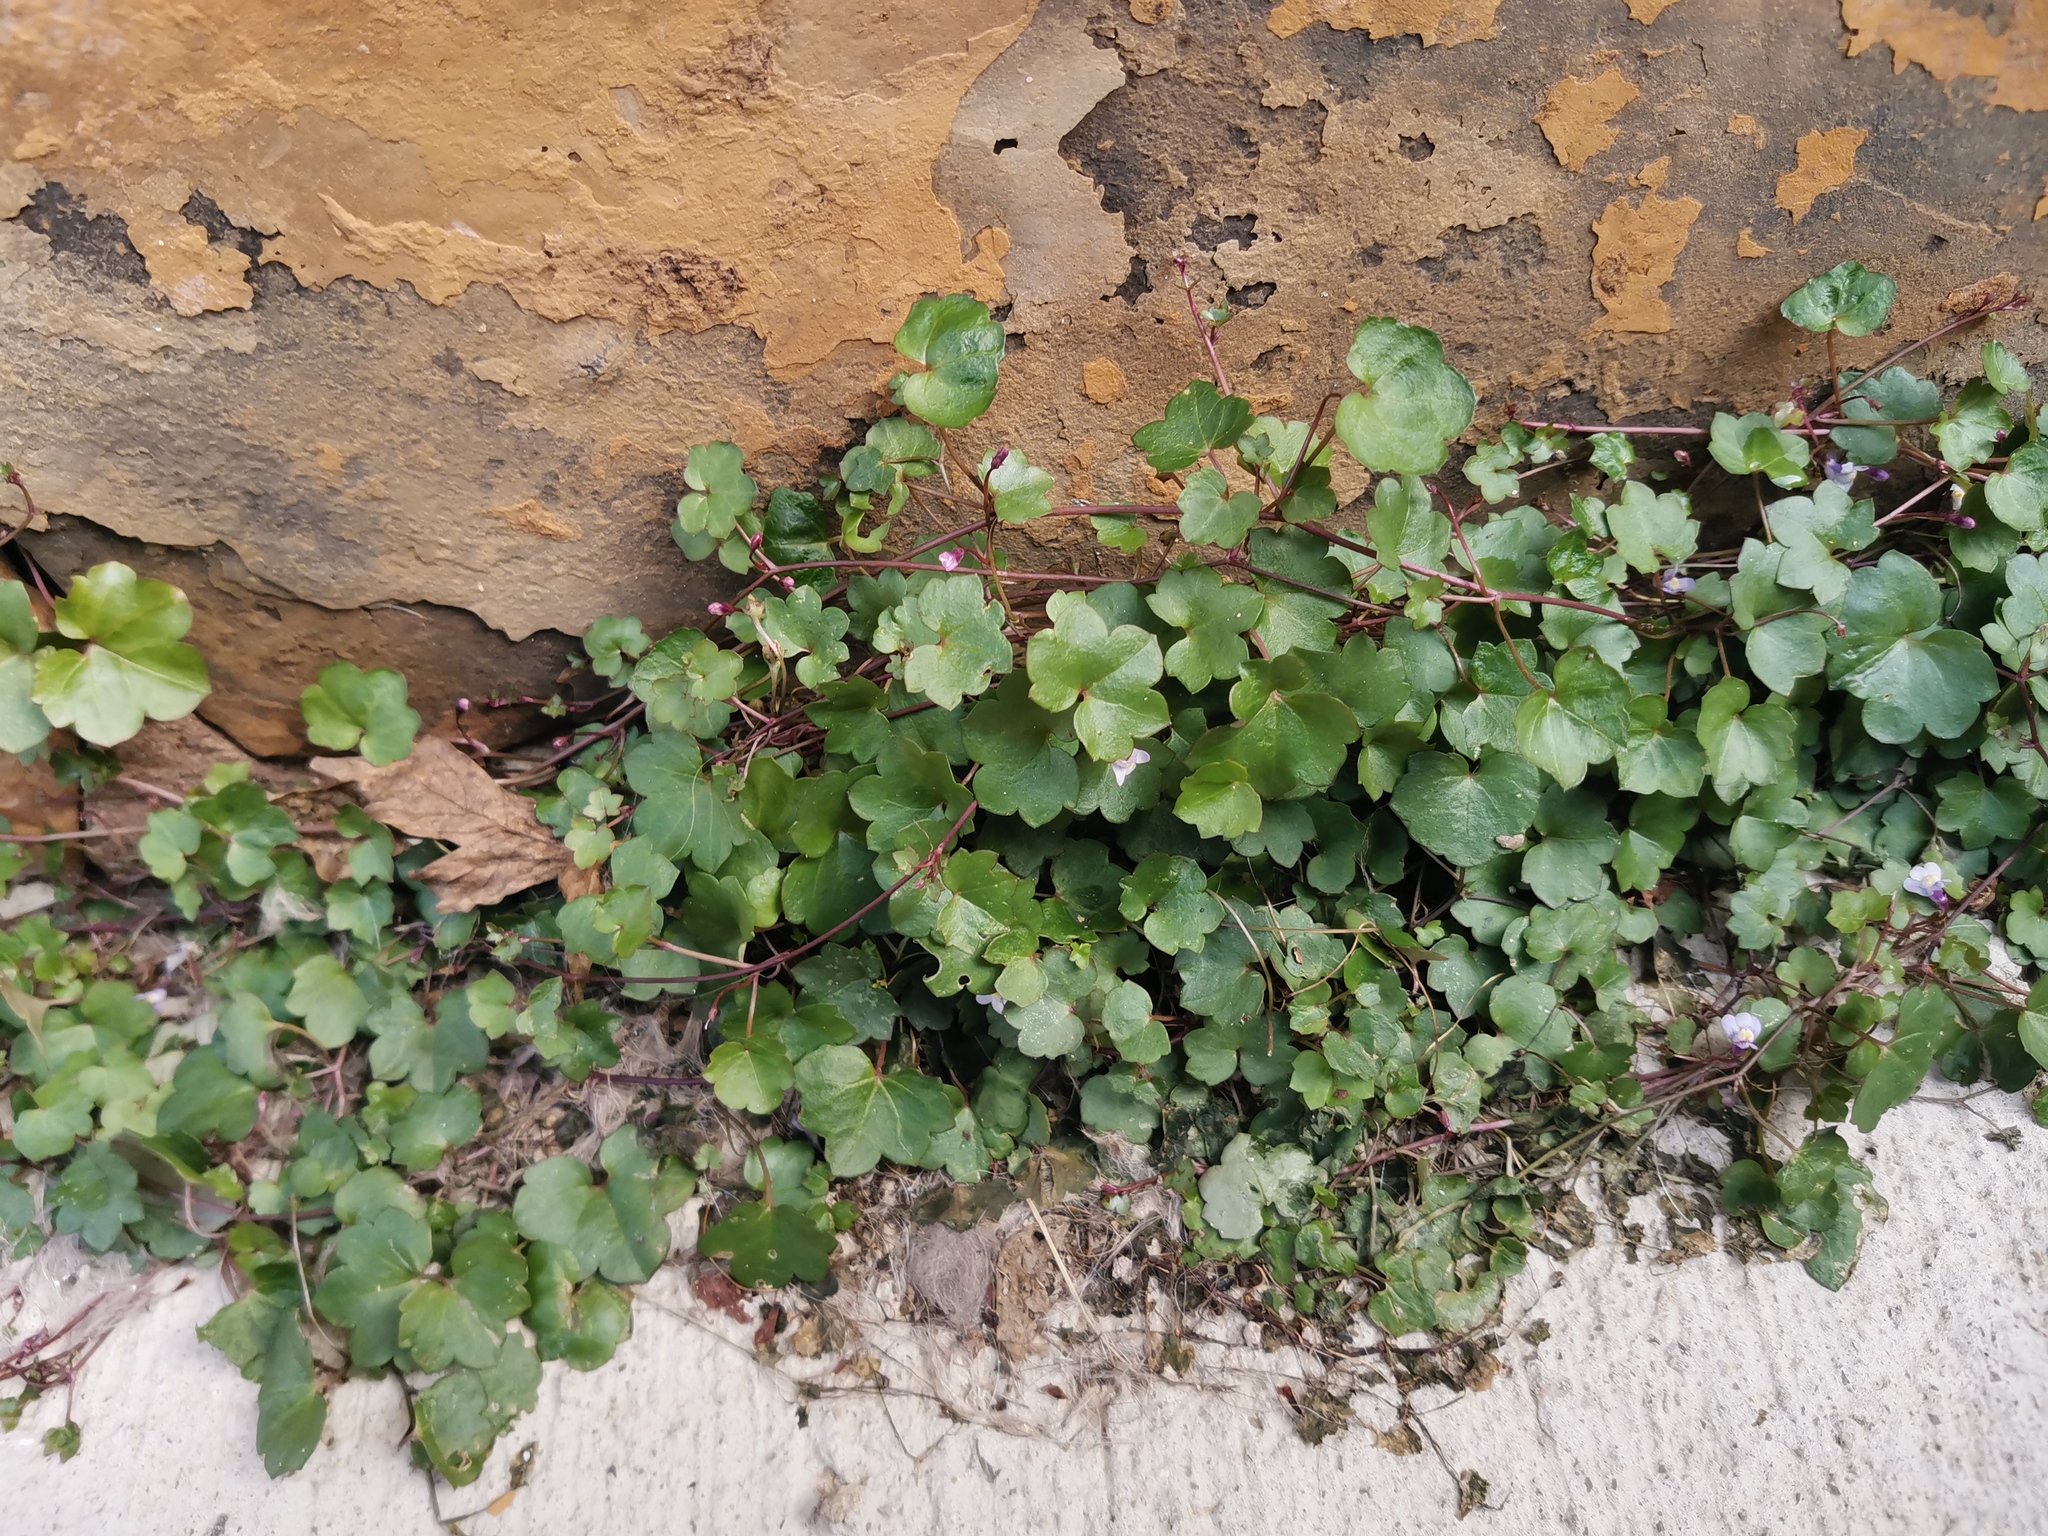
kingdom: Plantae
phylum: Tracheophyta
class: Magnoliopsida
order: Lamiales
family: Plantaginaceae
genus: Cymbalaria
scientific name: Cymbalaria muralis
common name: Ivy-leaved toadflax
